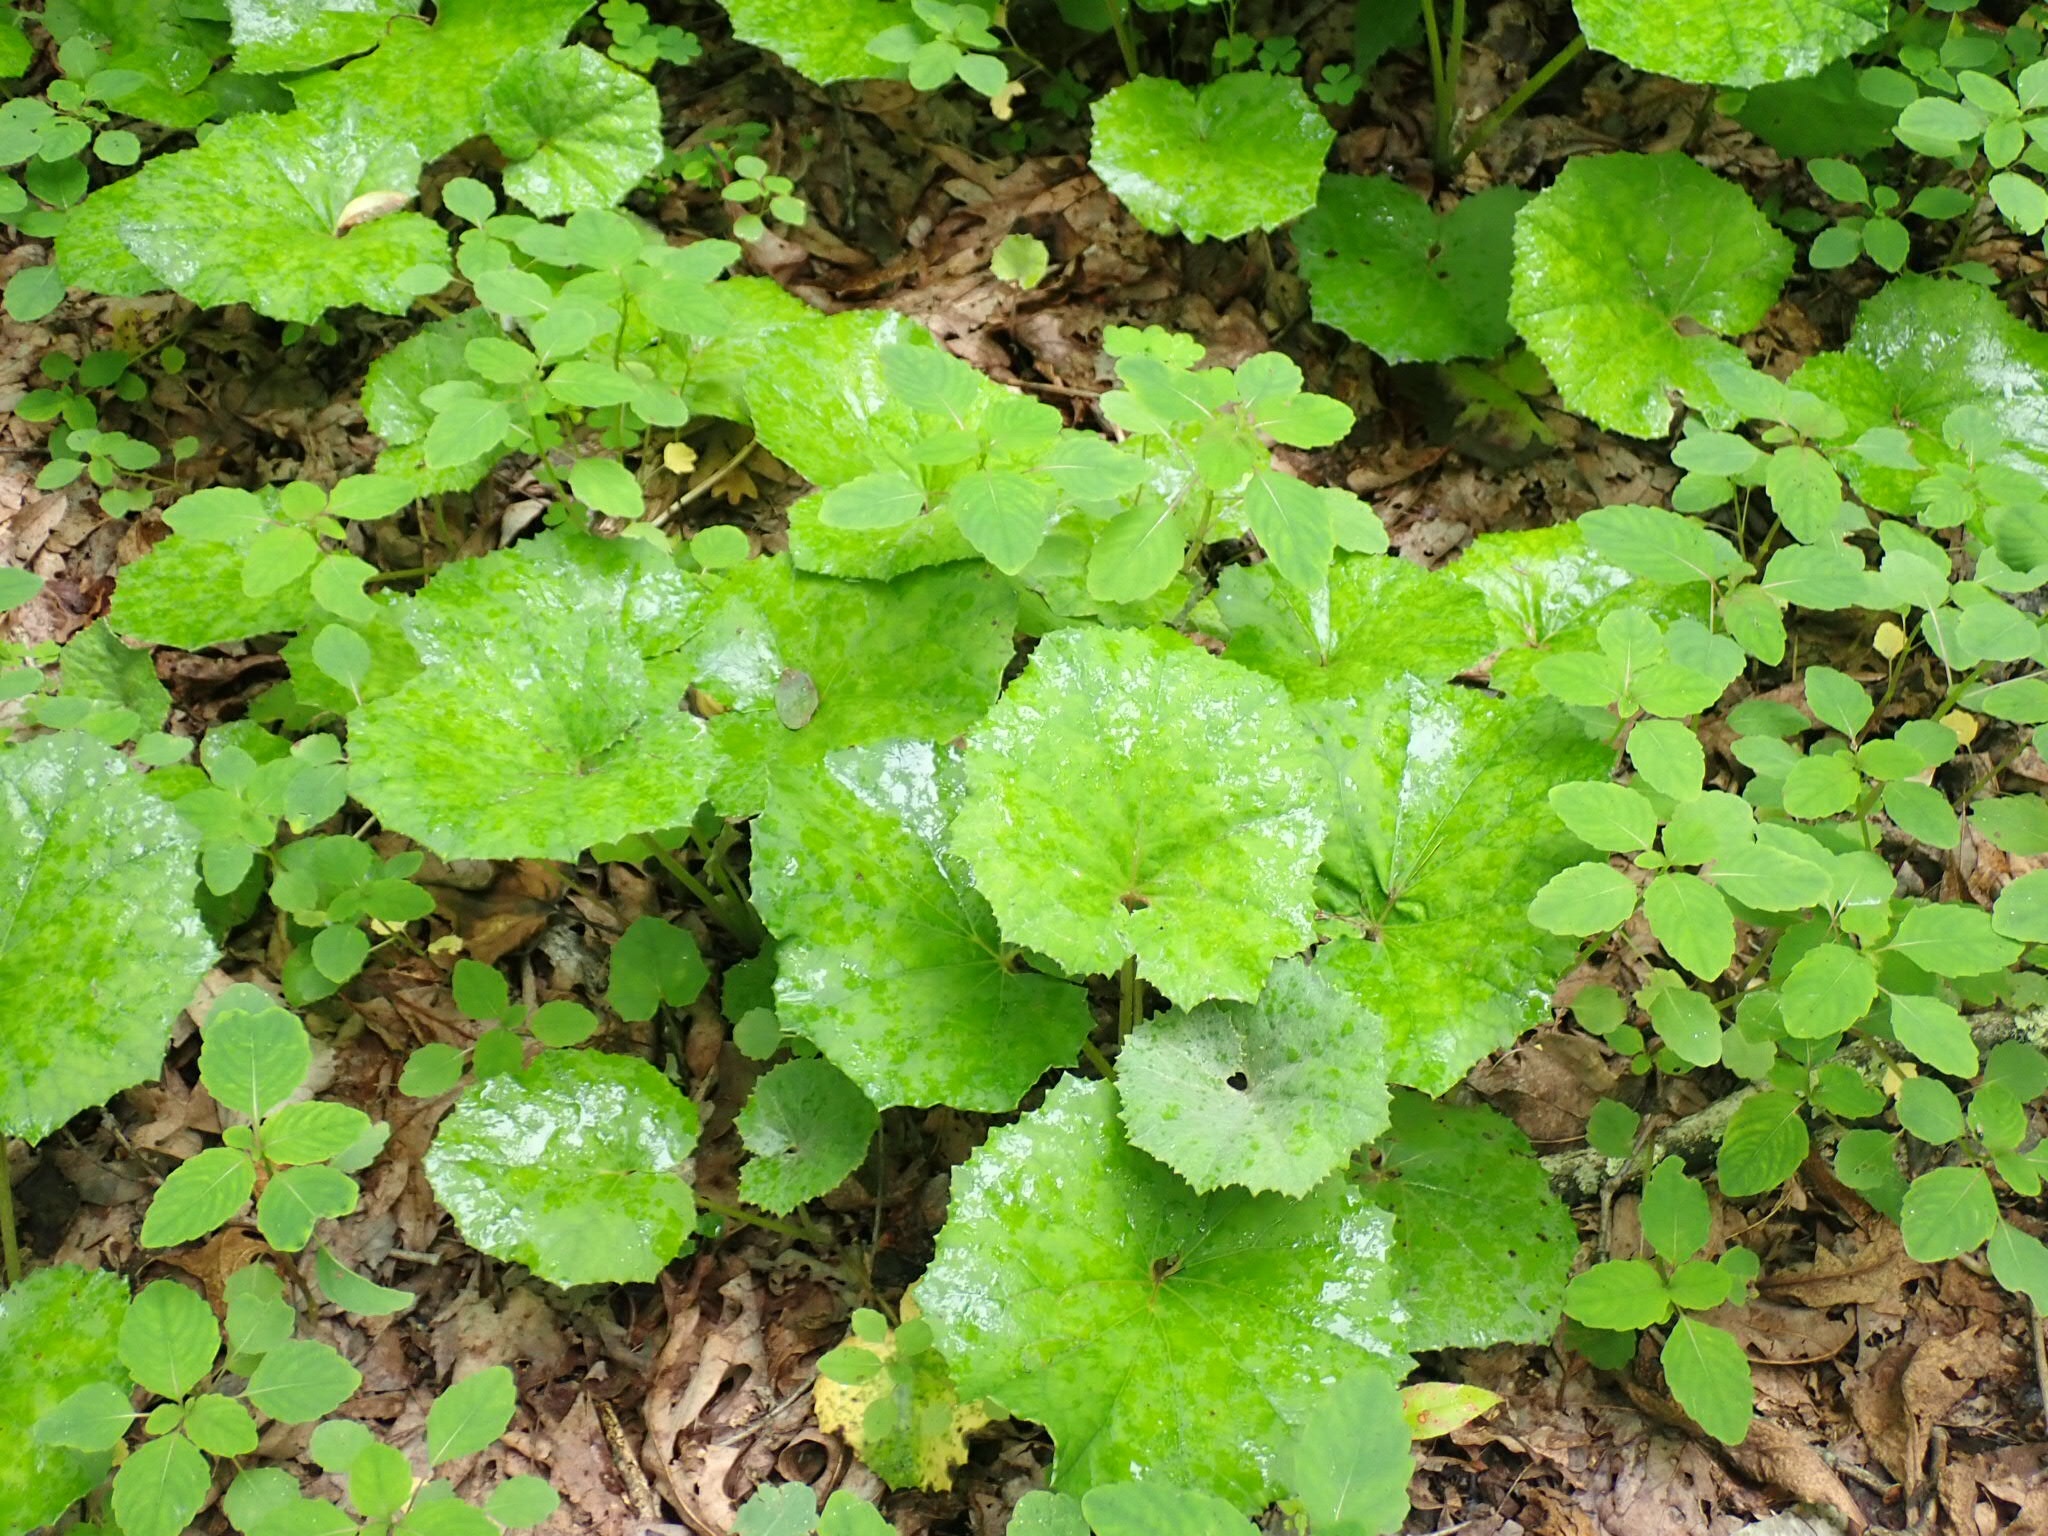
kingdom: Plantae
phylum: Tracheophyta
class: Magnoliopsida
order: Asterales
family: Asteraceae
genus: Tussilago
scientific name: Tussilago farfara
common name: Coltsfoot
